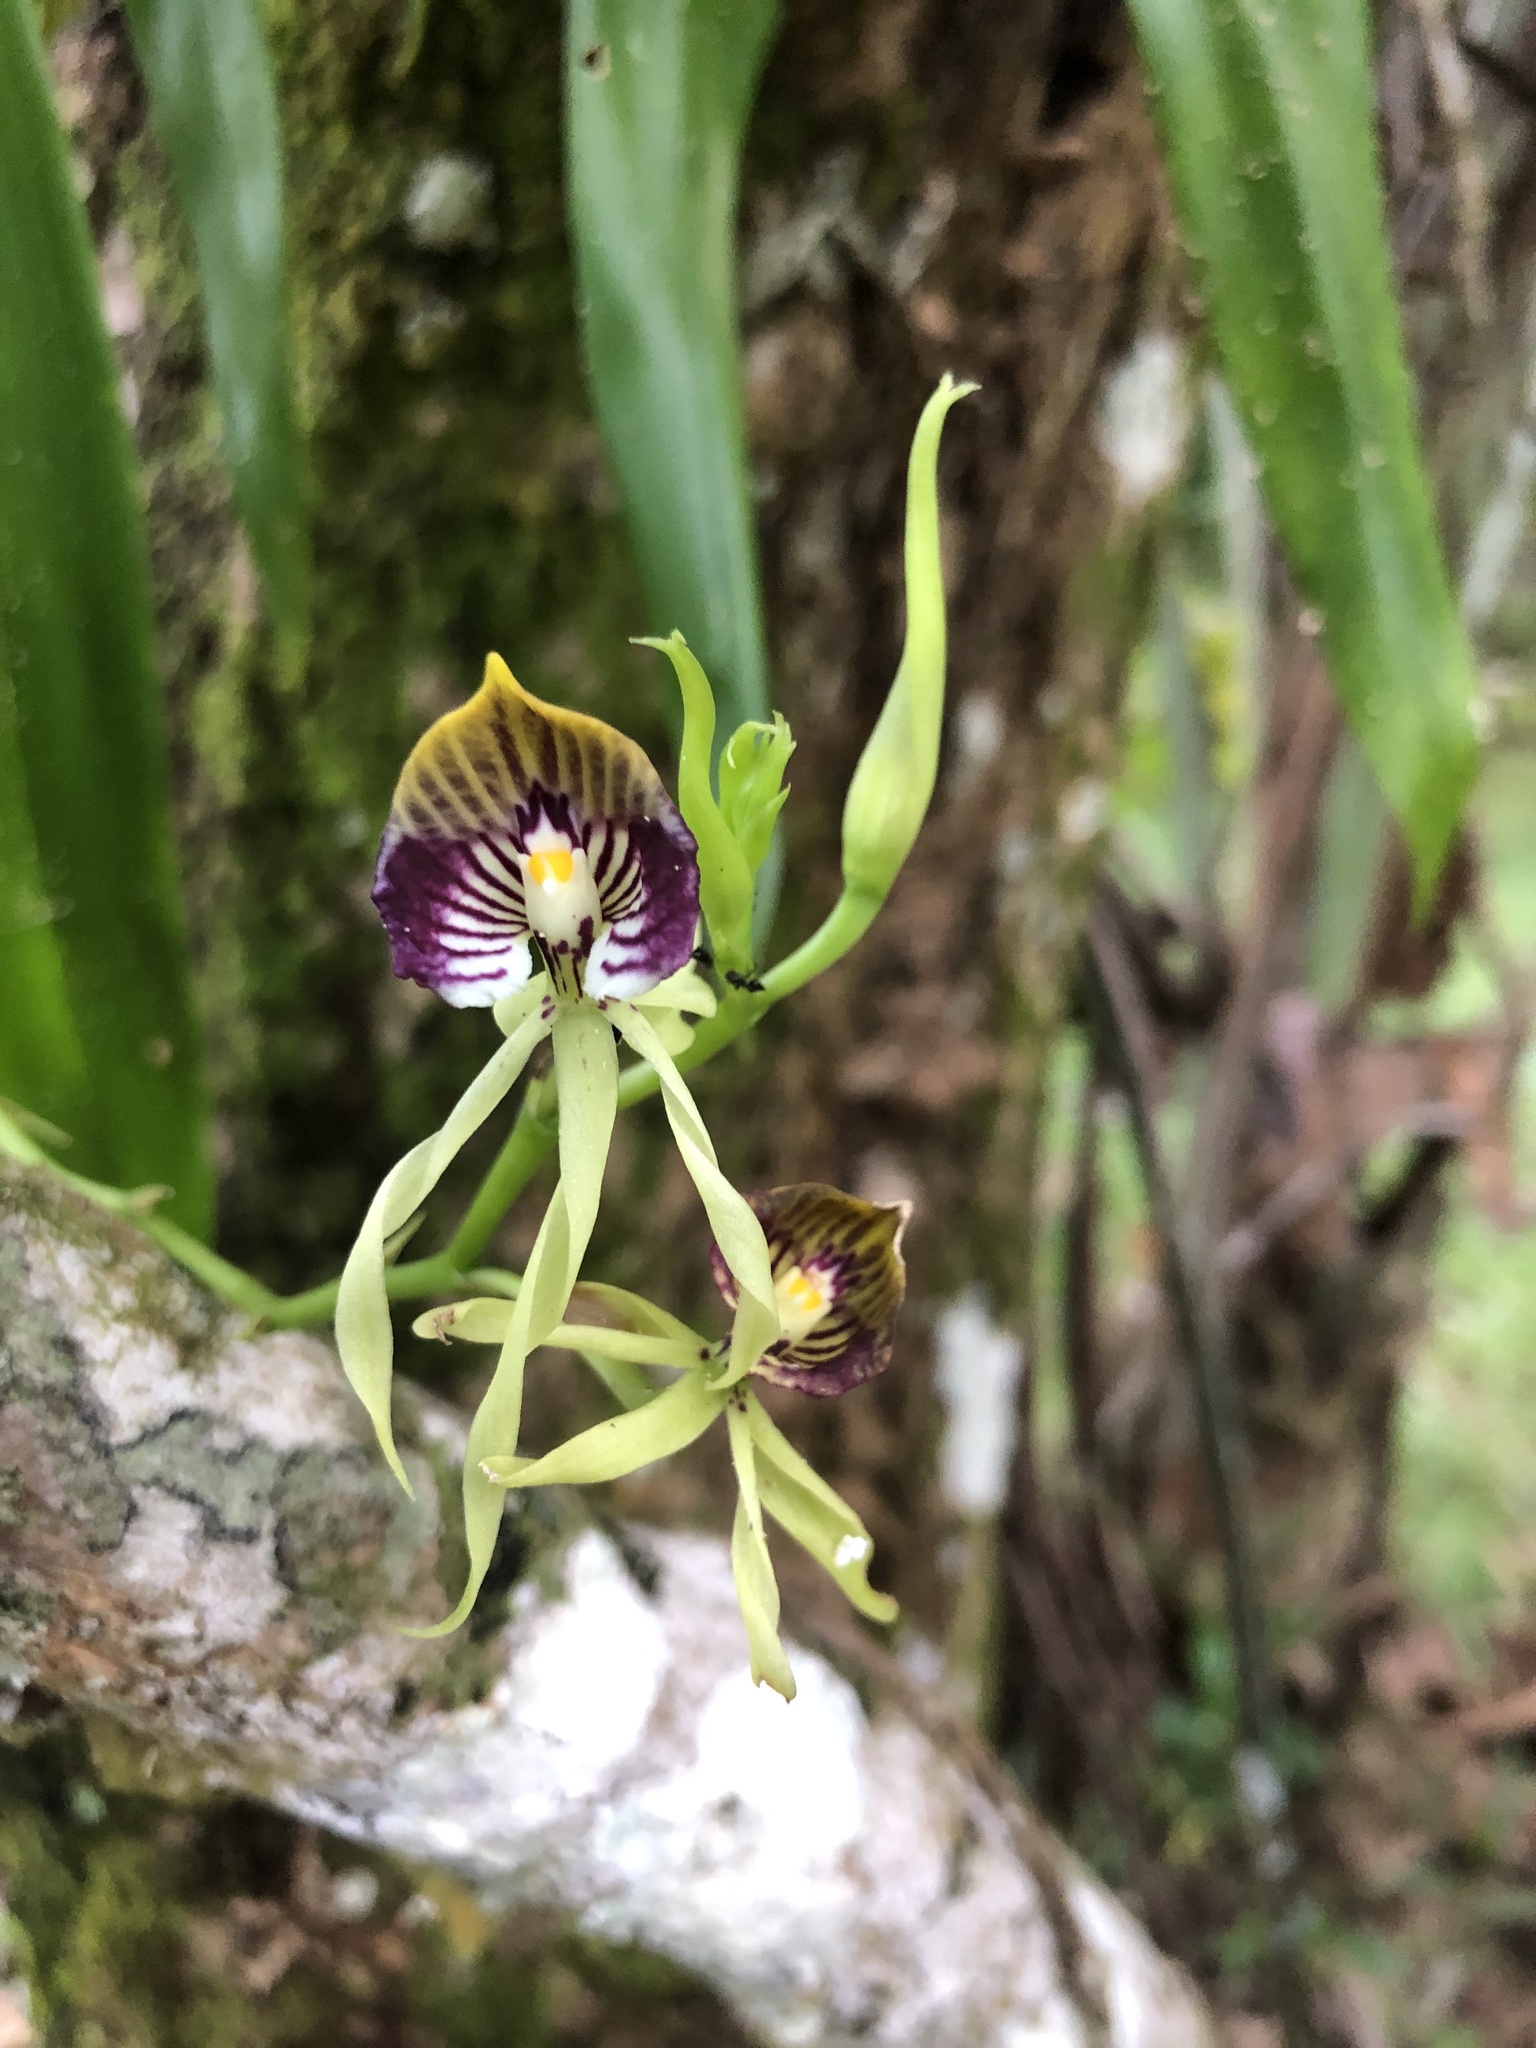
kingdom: Plantae
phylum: Tracheophyta
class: Liliopsida
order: Asparagales
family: Orchidaceae
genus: Prosthechea
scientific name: Prosthechea cochleata
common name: Clamshell orchid
